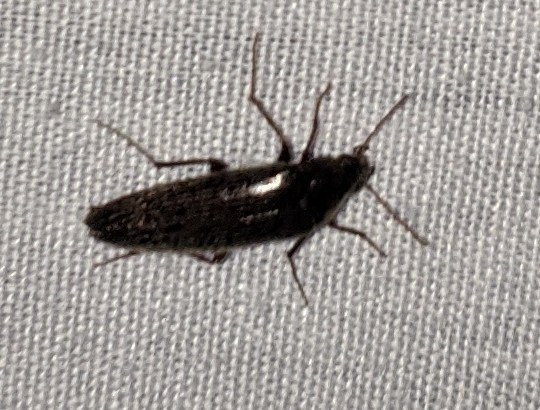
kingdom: Animalia
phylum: Arthropoda
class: Insecta
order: Coleoptera
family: Synchroidae
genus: Synchroa
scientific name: Synchroa punctata
